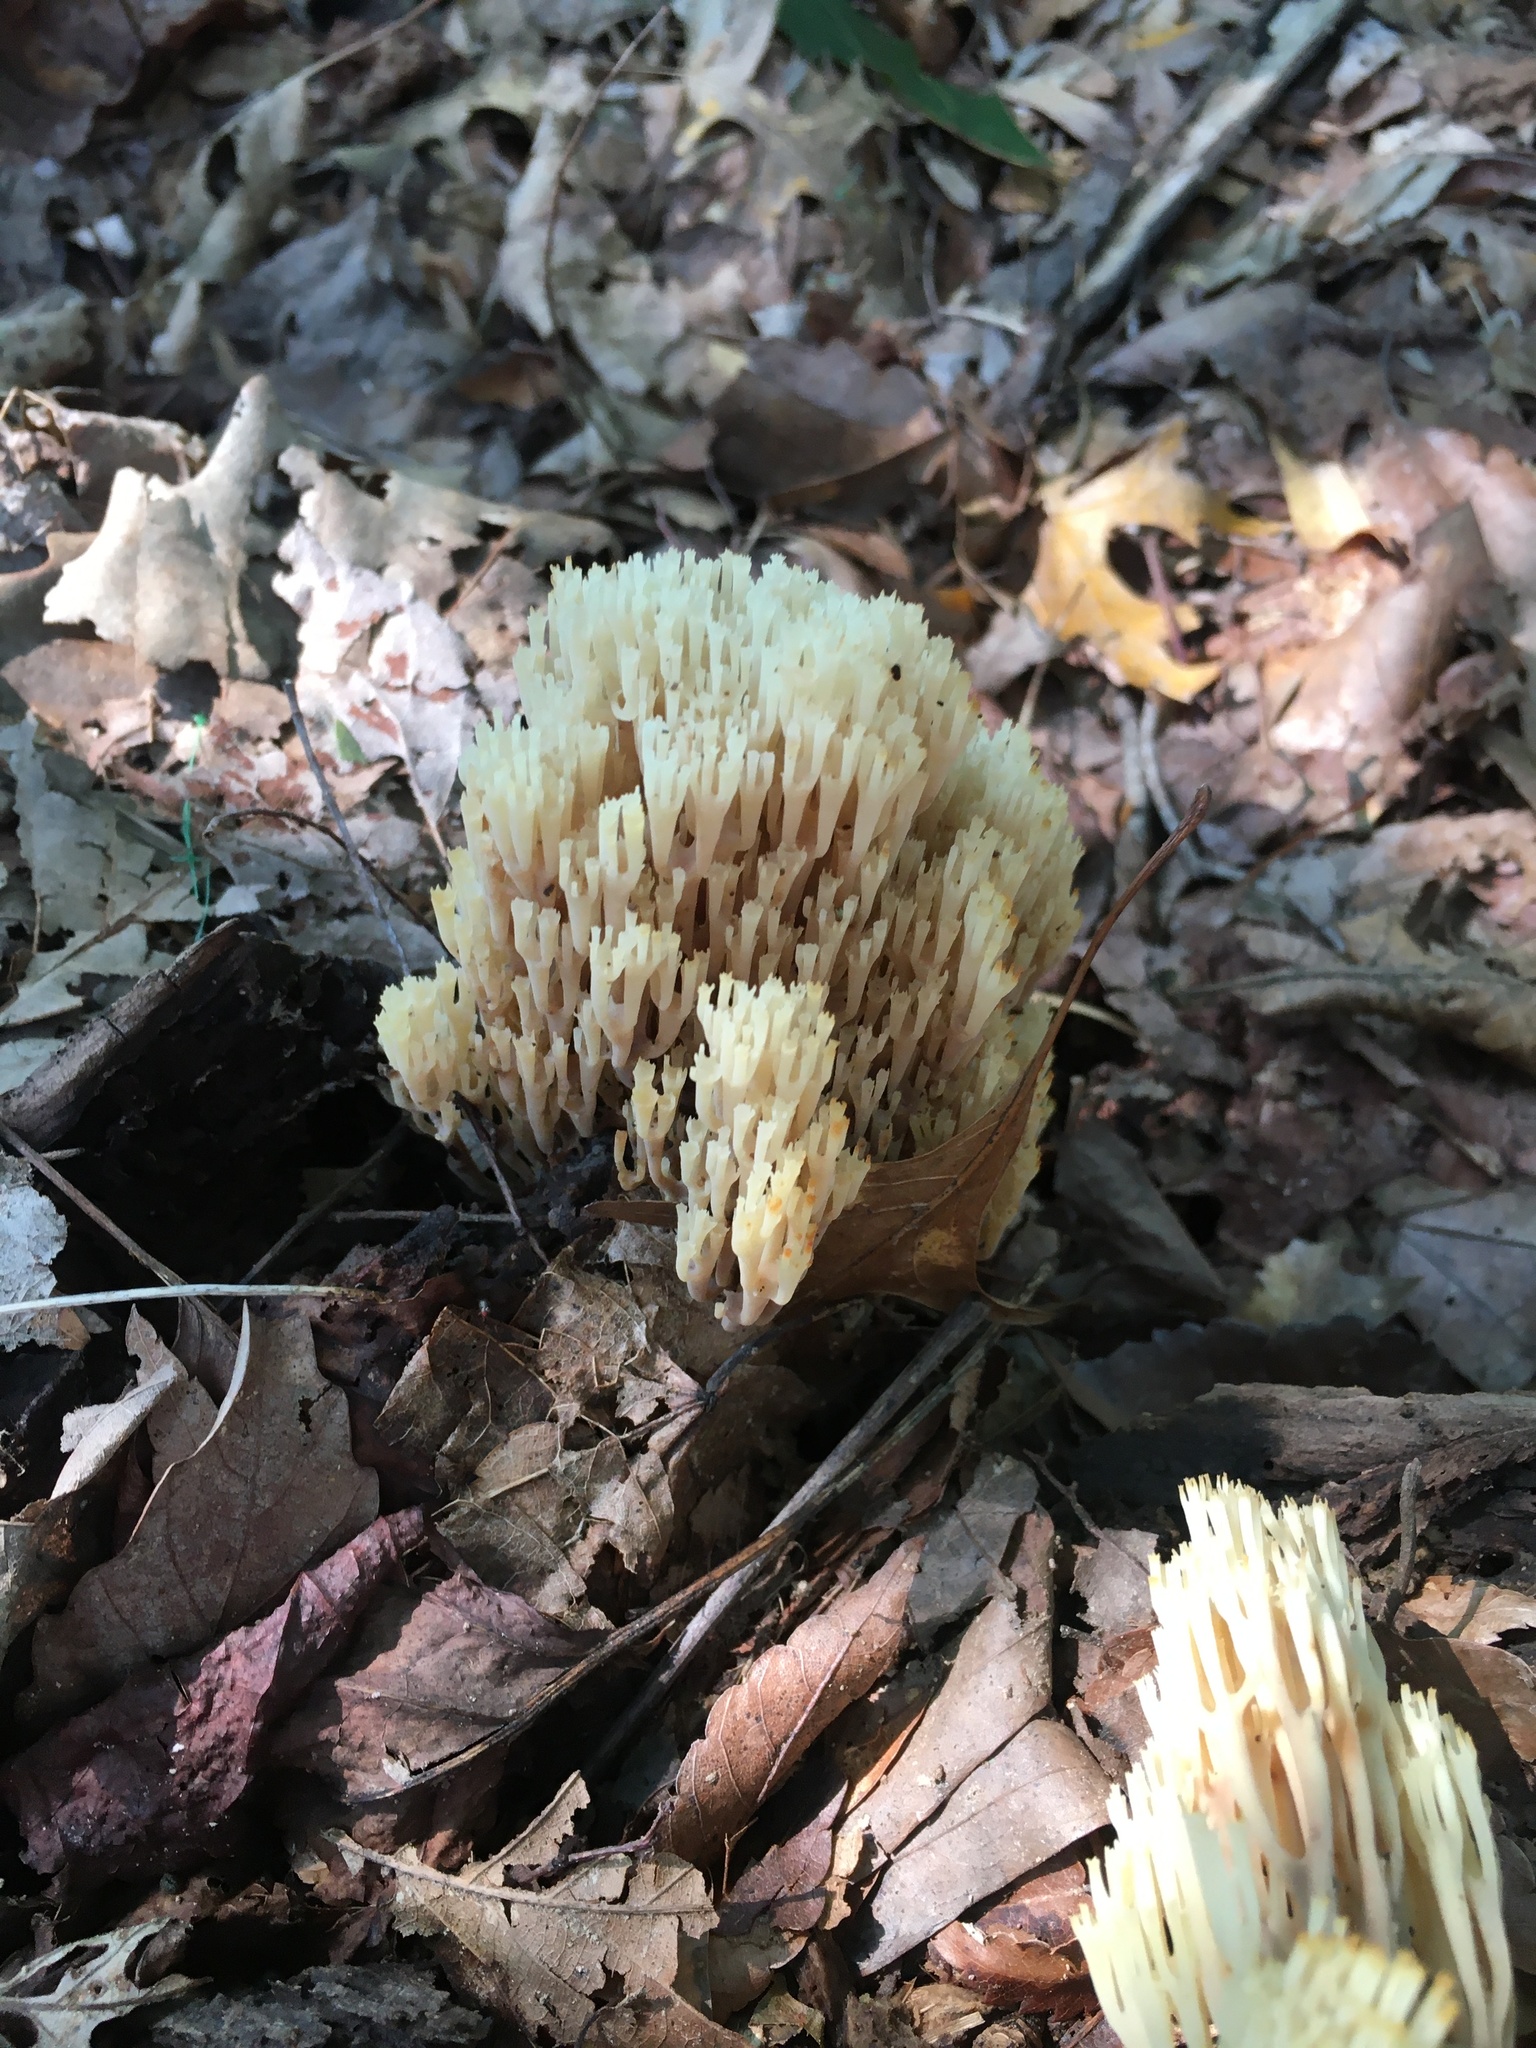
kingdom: Fungi
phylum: Basidiomycota
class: Agaricomycetes
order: Russulales
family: Auriscalpiaceae
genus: Artomyces
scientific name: Artomyces pyxidatus
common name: Crown-tipped coral fungus
